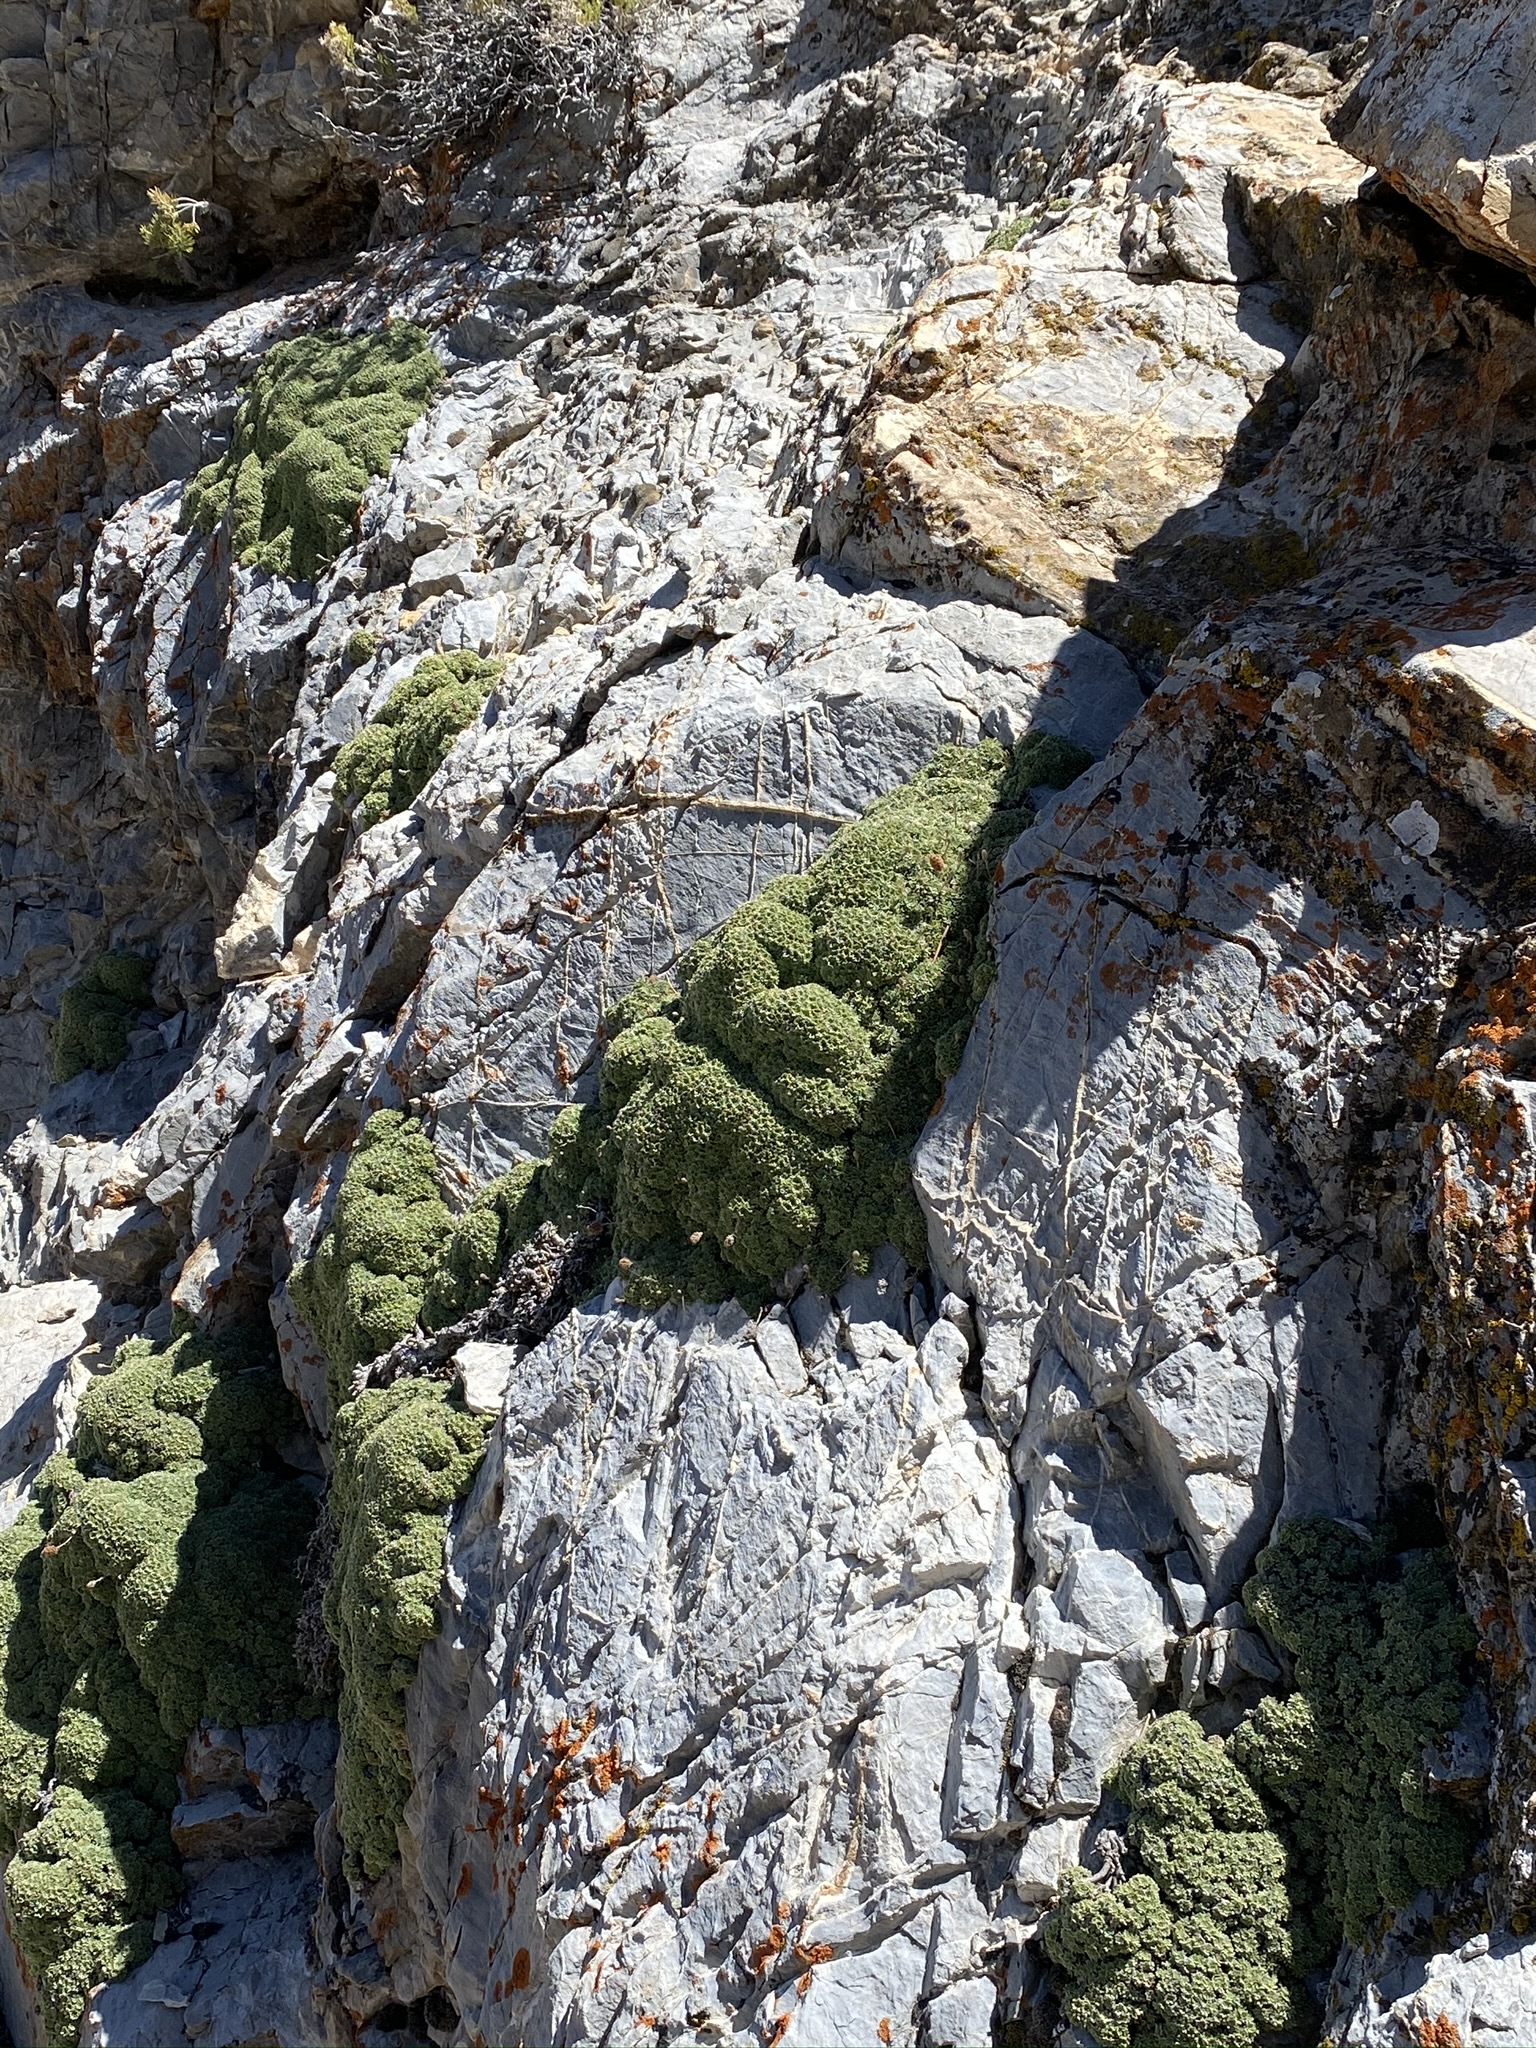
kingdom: Plantae
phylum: Tracheophyta
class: Magnoliopsida
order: Rosales
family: Rosaceae
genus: Petrophytum
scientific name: Petrophytum caespitosum
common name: Mat rockspirea
